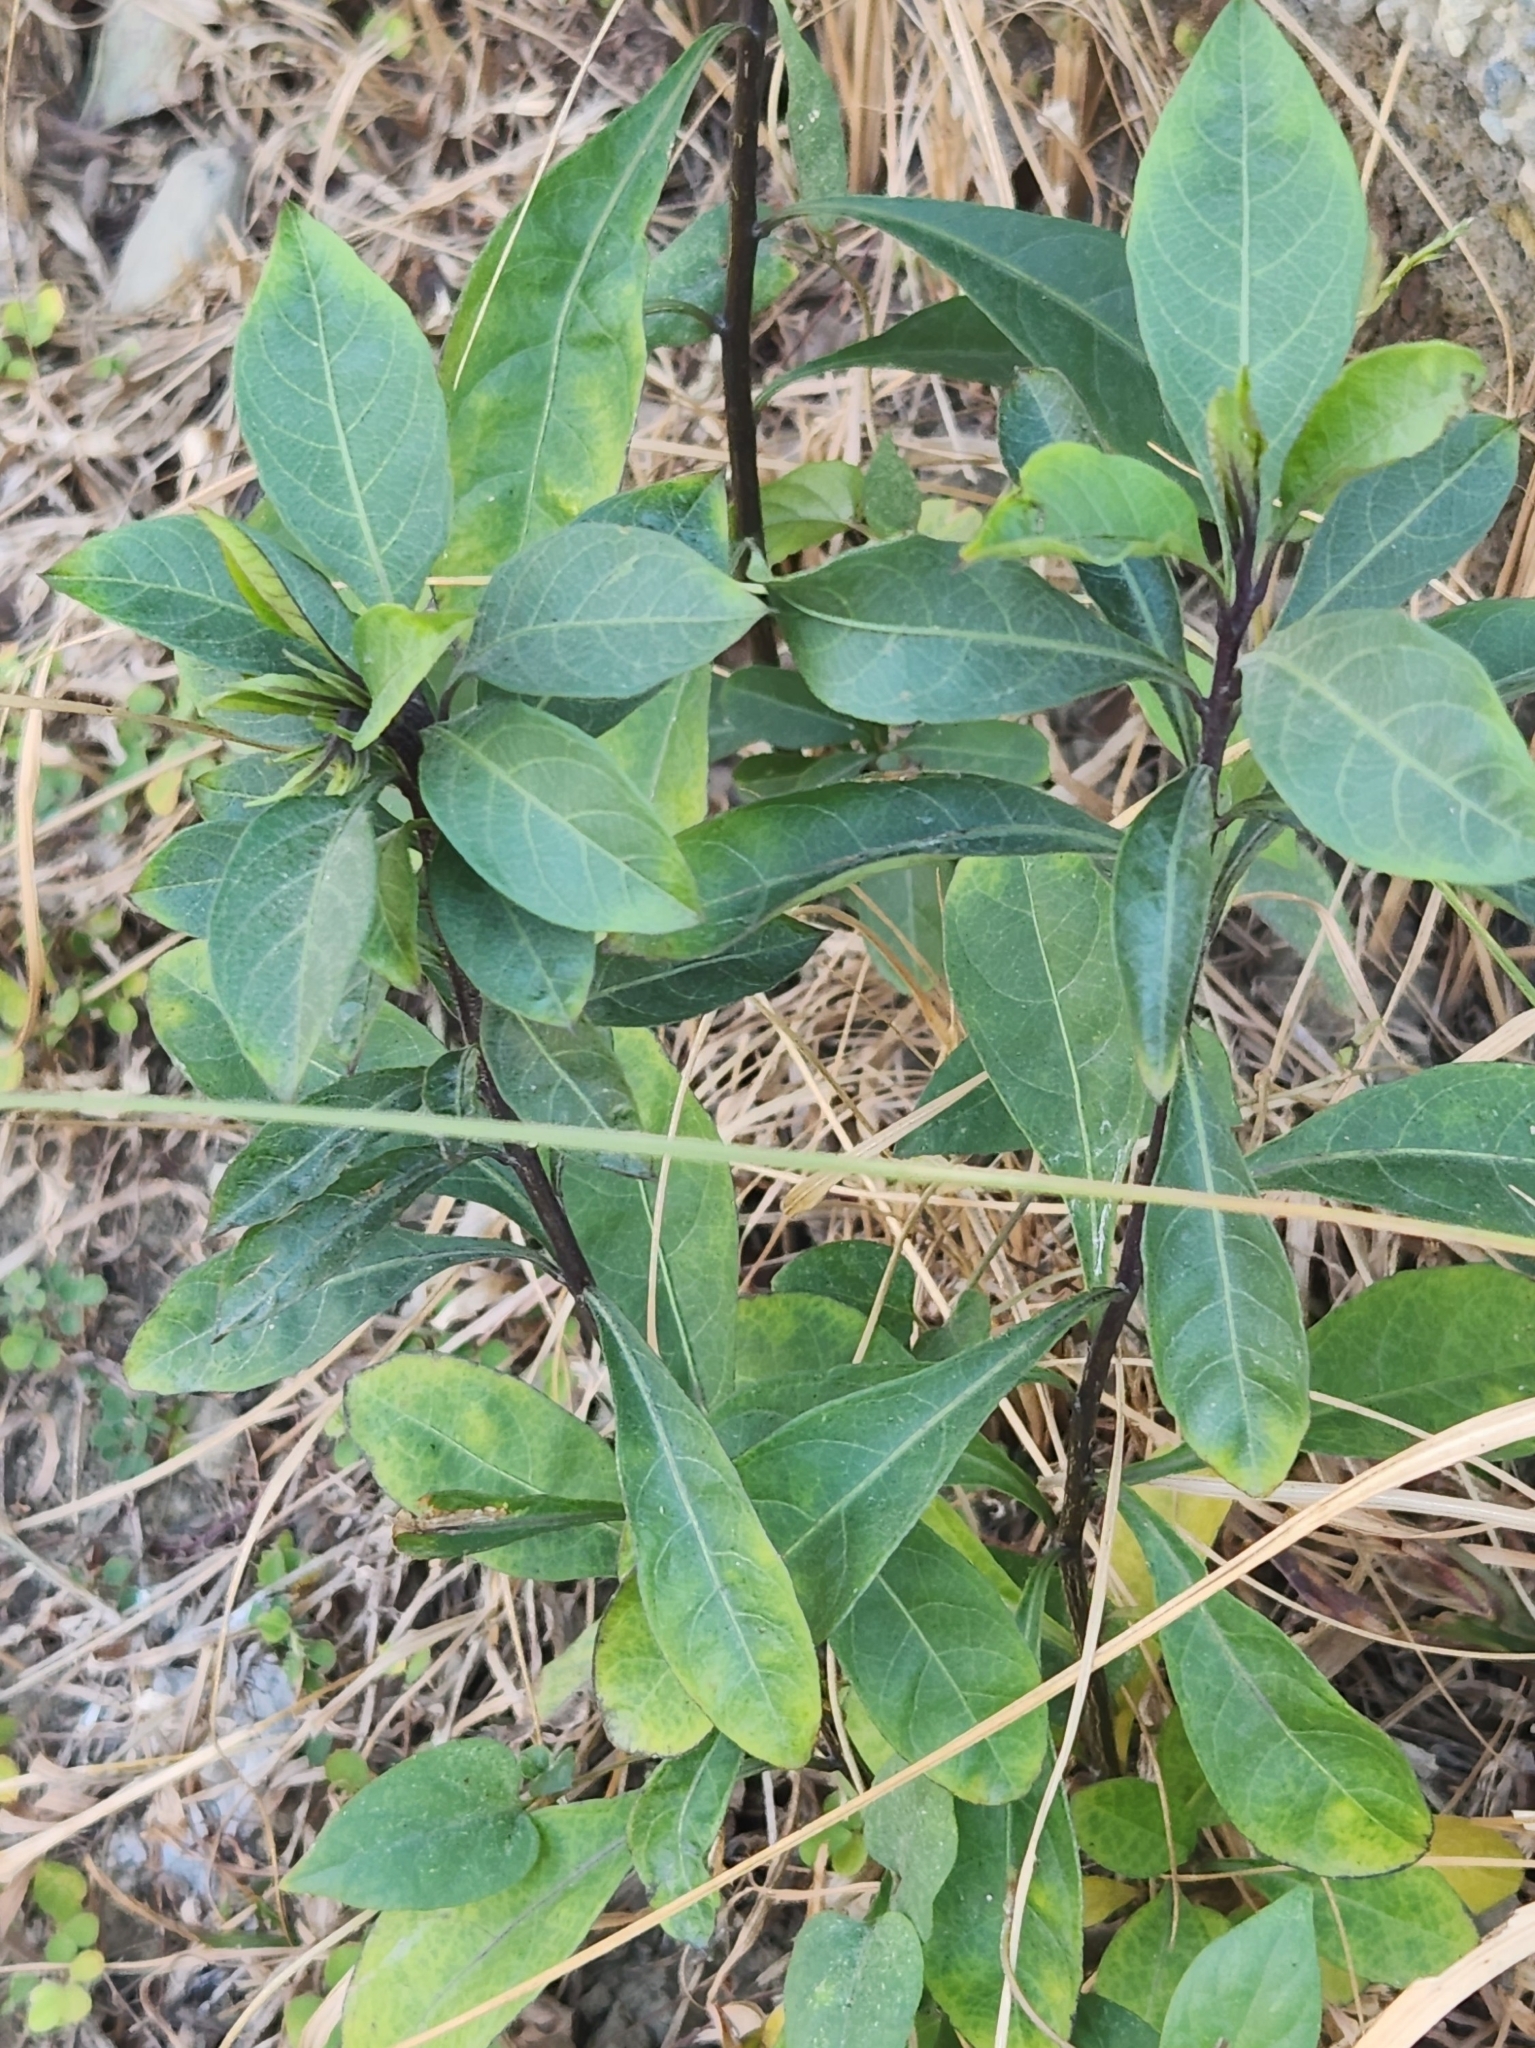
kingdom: Plantae
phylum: Tracheophyta
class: Magnoliopsida
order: Solanales
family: Solanaceae
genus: Solanum
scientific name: Solanum diphyllum
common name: Twoleaf nightshade
